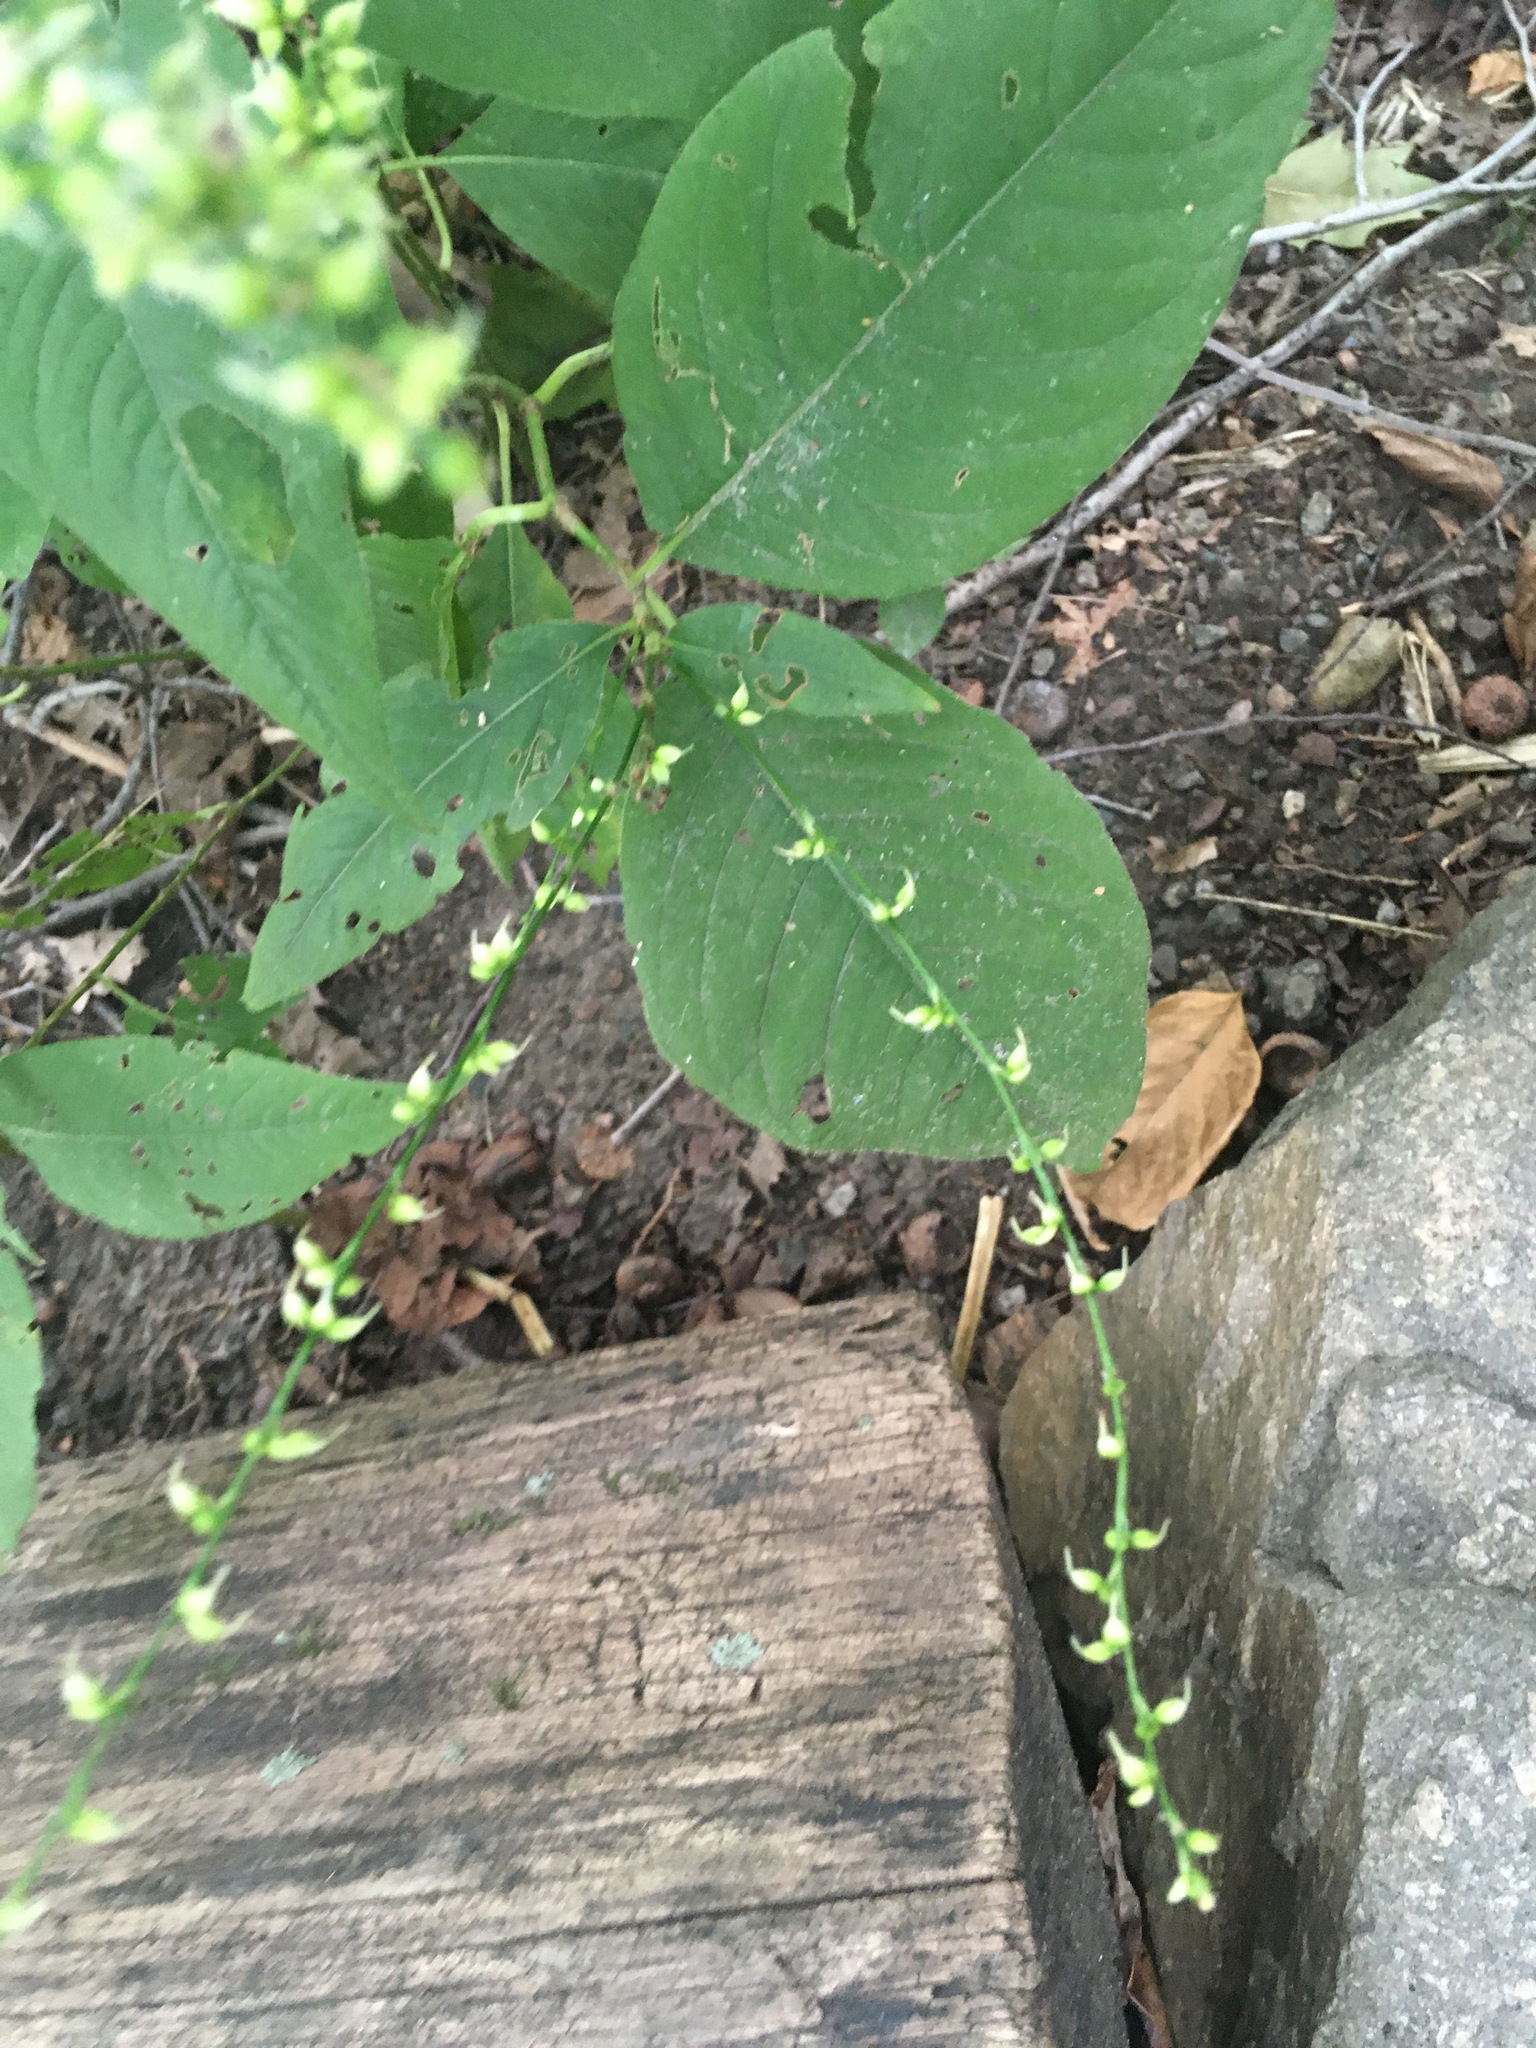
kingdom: Plantae
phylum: Tracheophyta
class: Magnoliopsida
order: Caryophyllales
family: Polygonaceae
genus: Persicaria
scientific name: Persicaria virginiana
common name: Jumpseed
